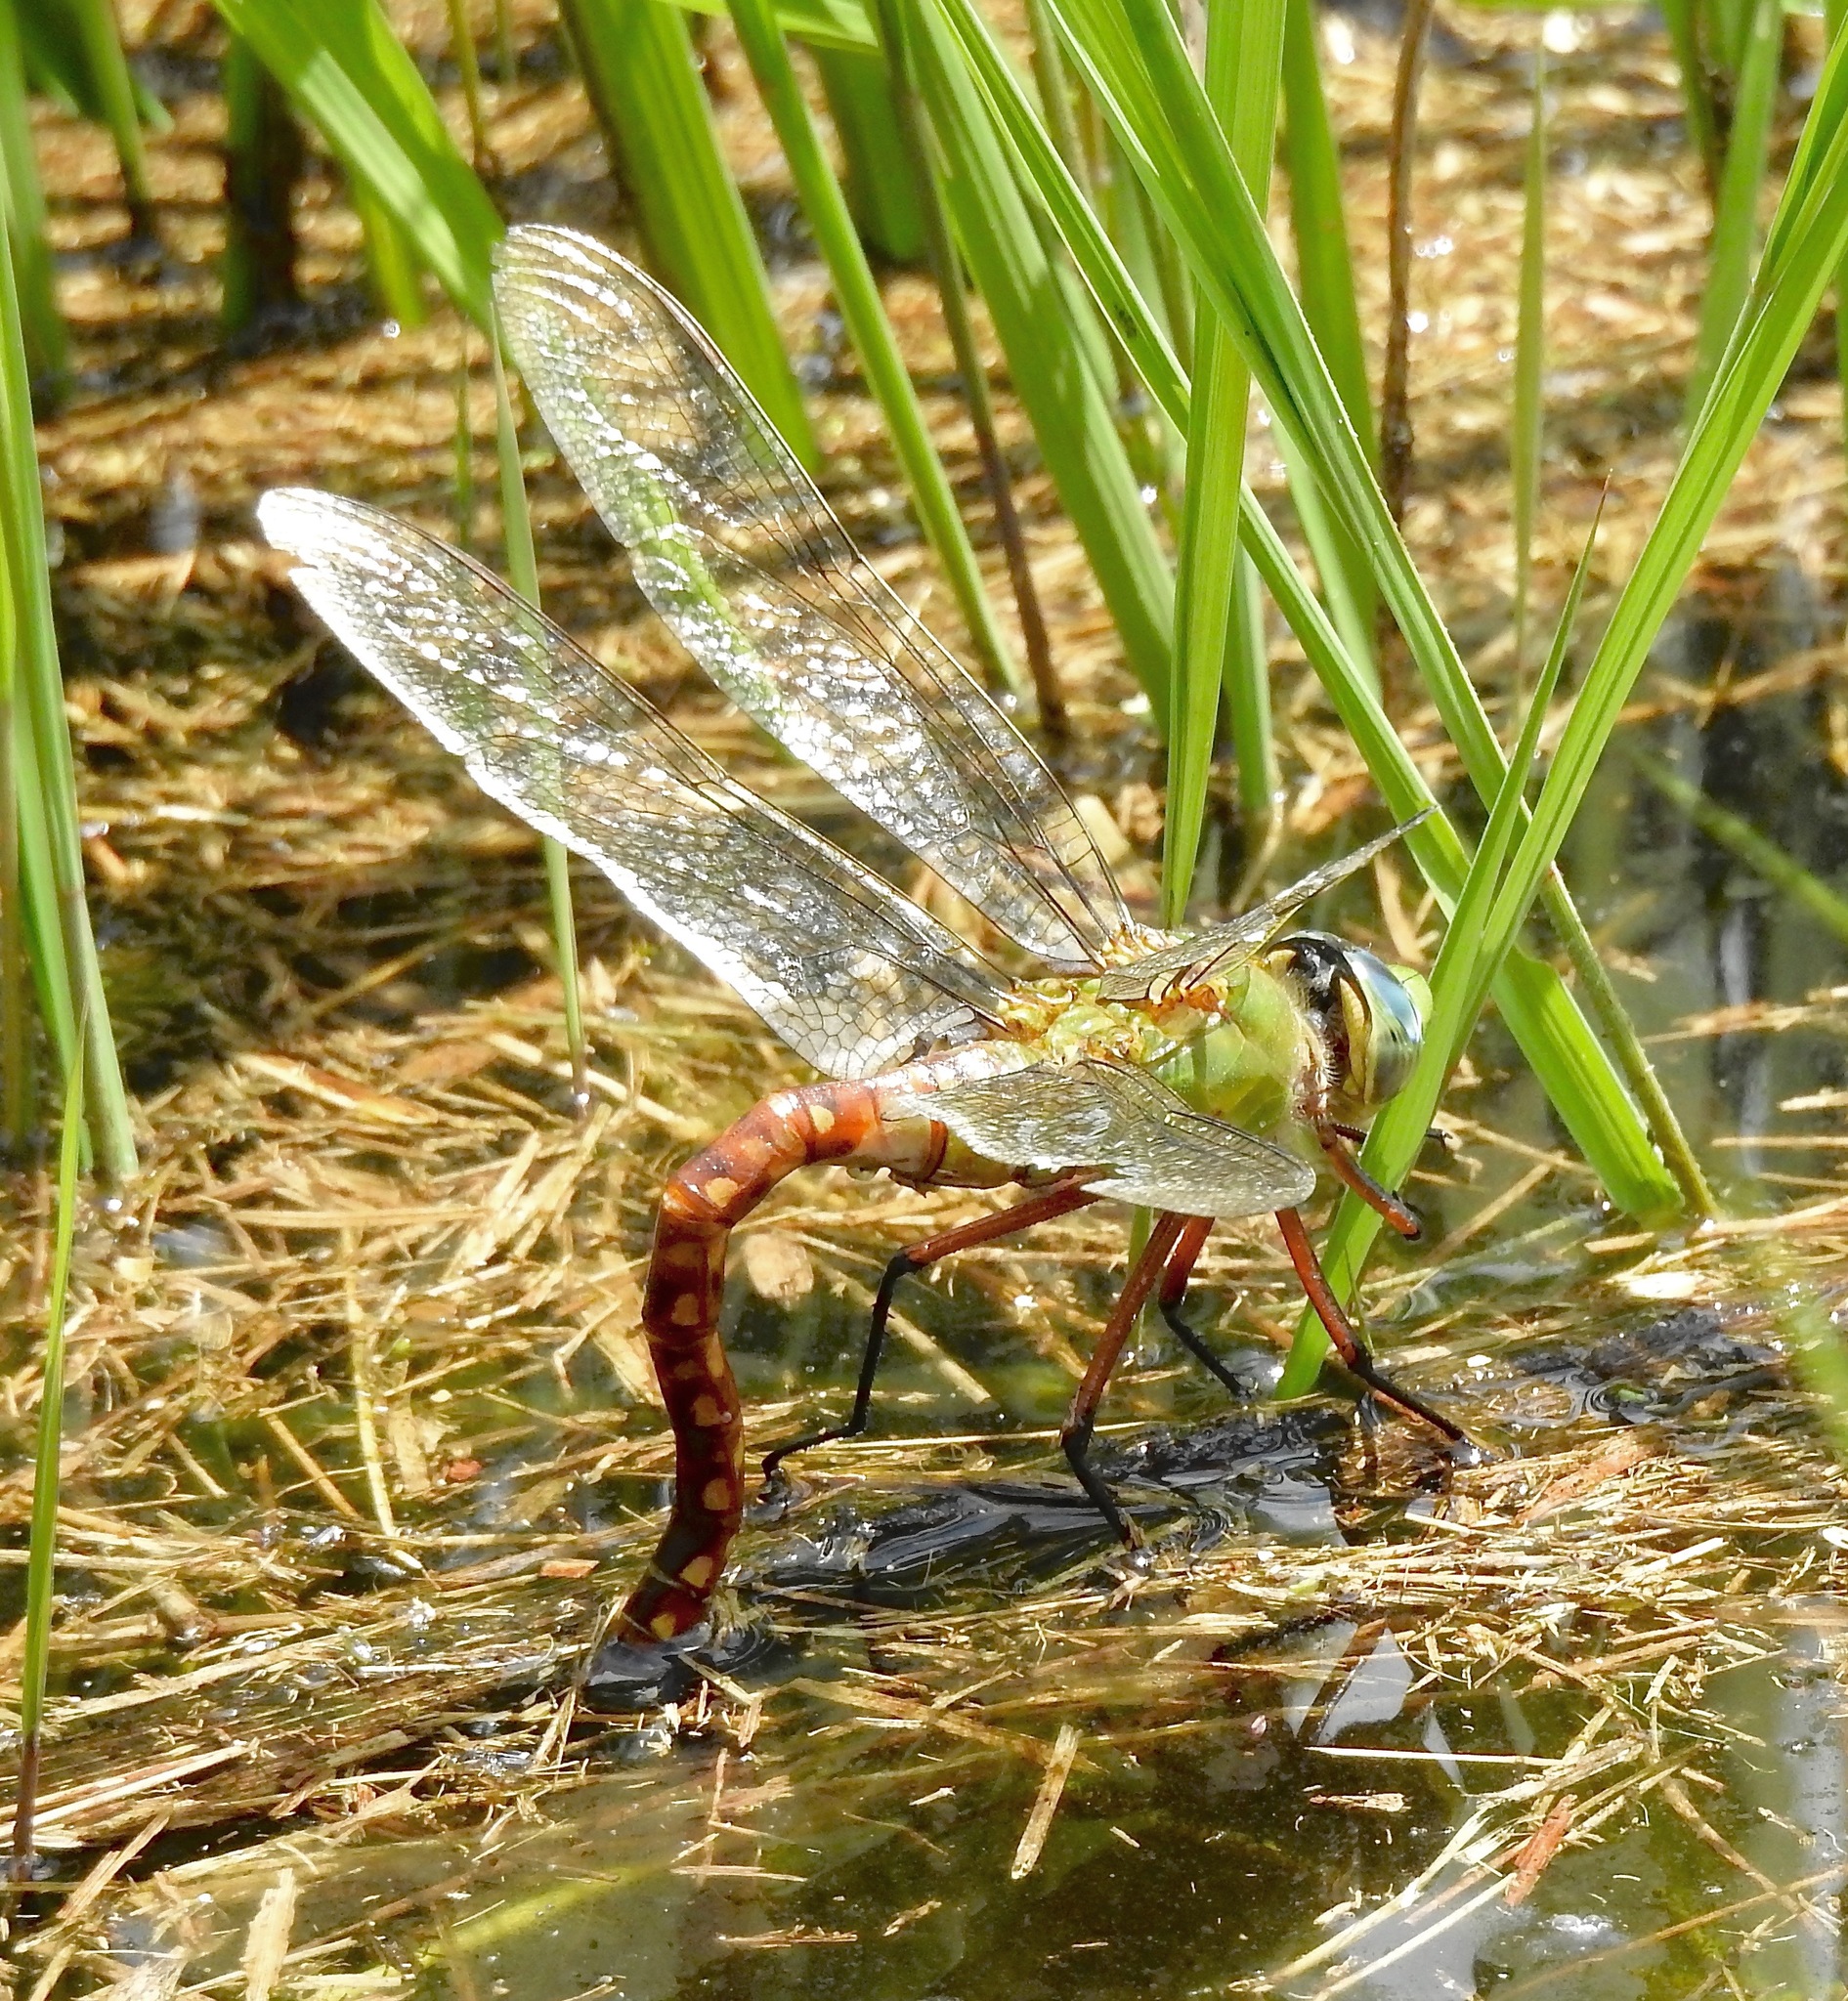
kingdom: Animalia
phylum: Arthropoda
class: Insecta
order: Odonata
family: Aeshnidae
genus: Anax
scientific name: Anax longipes
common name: Comet darner
